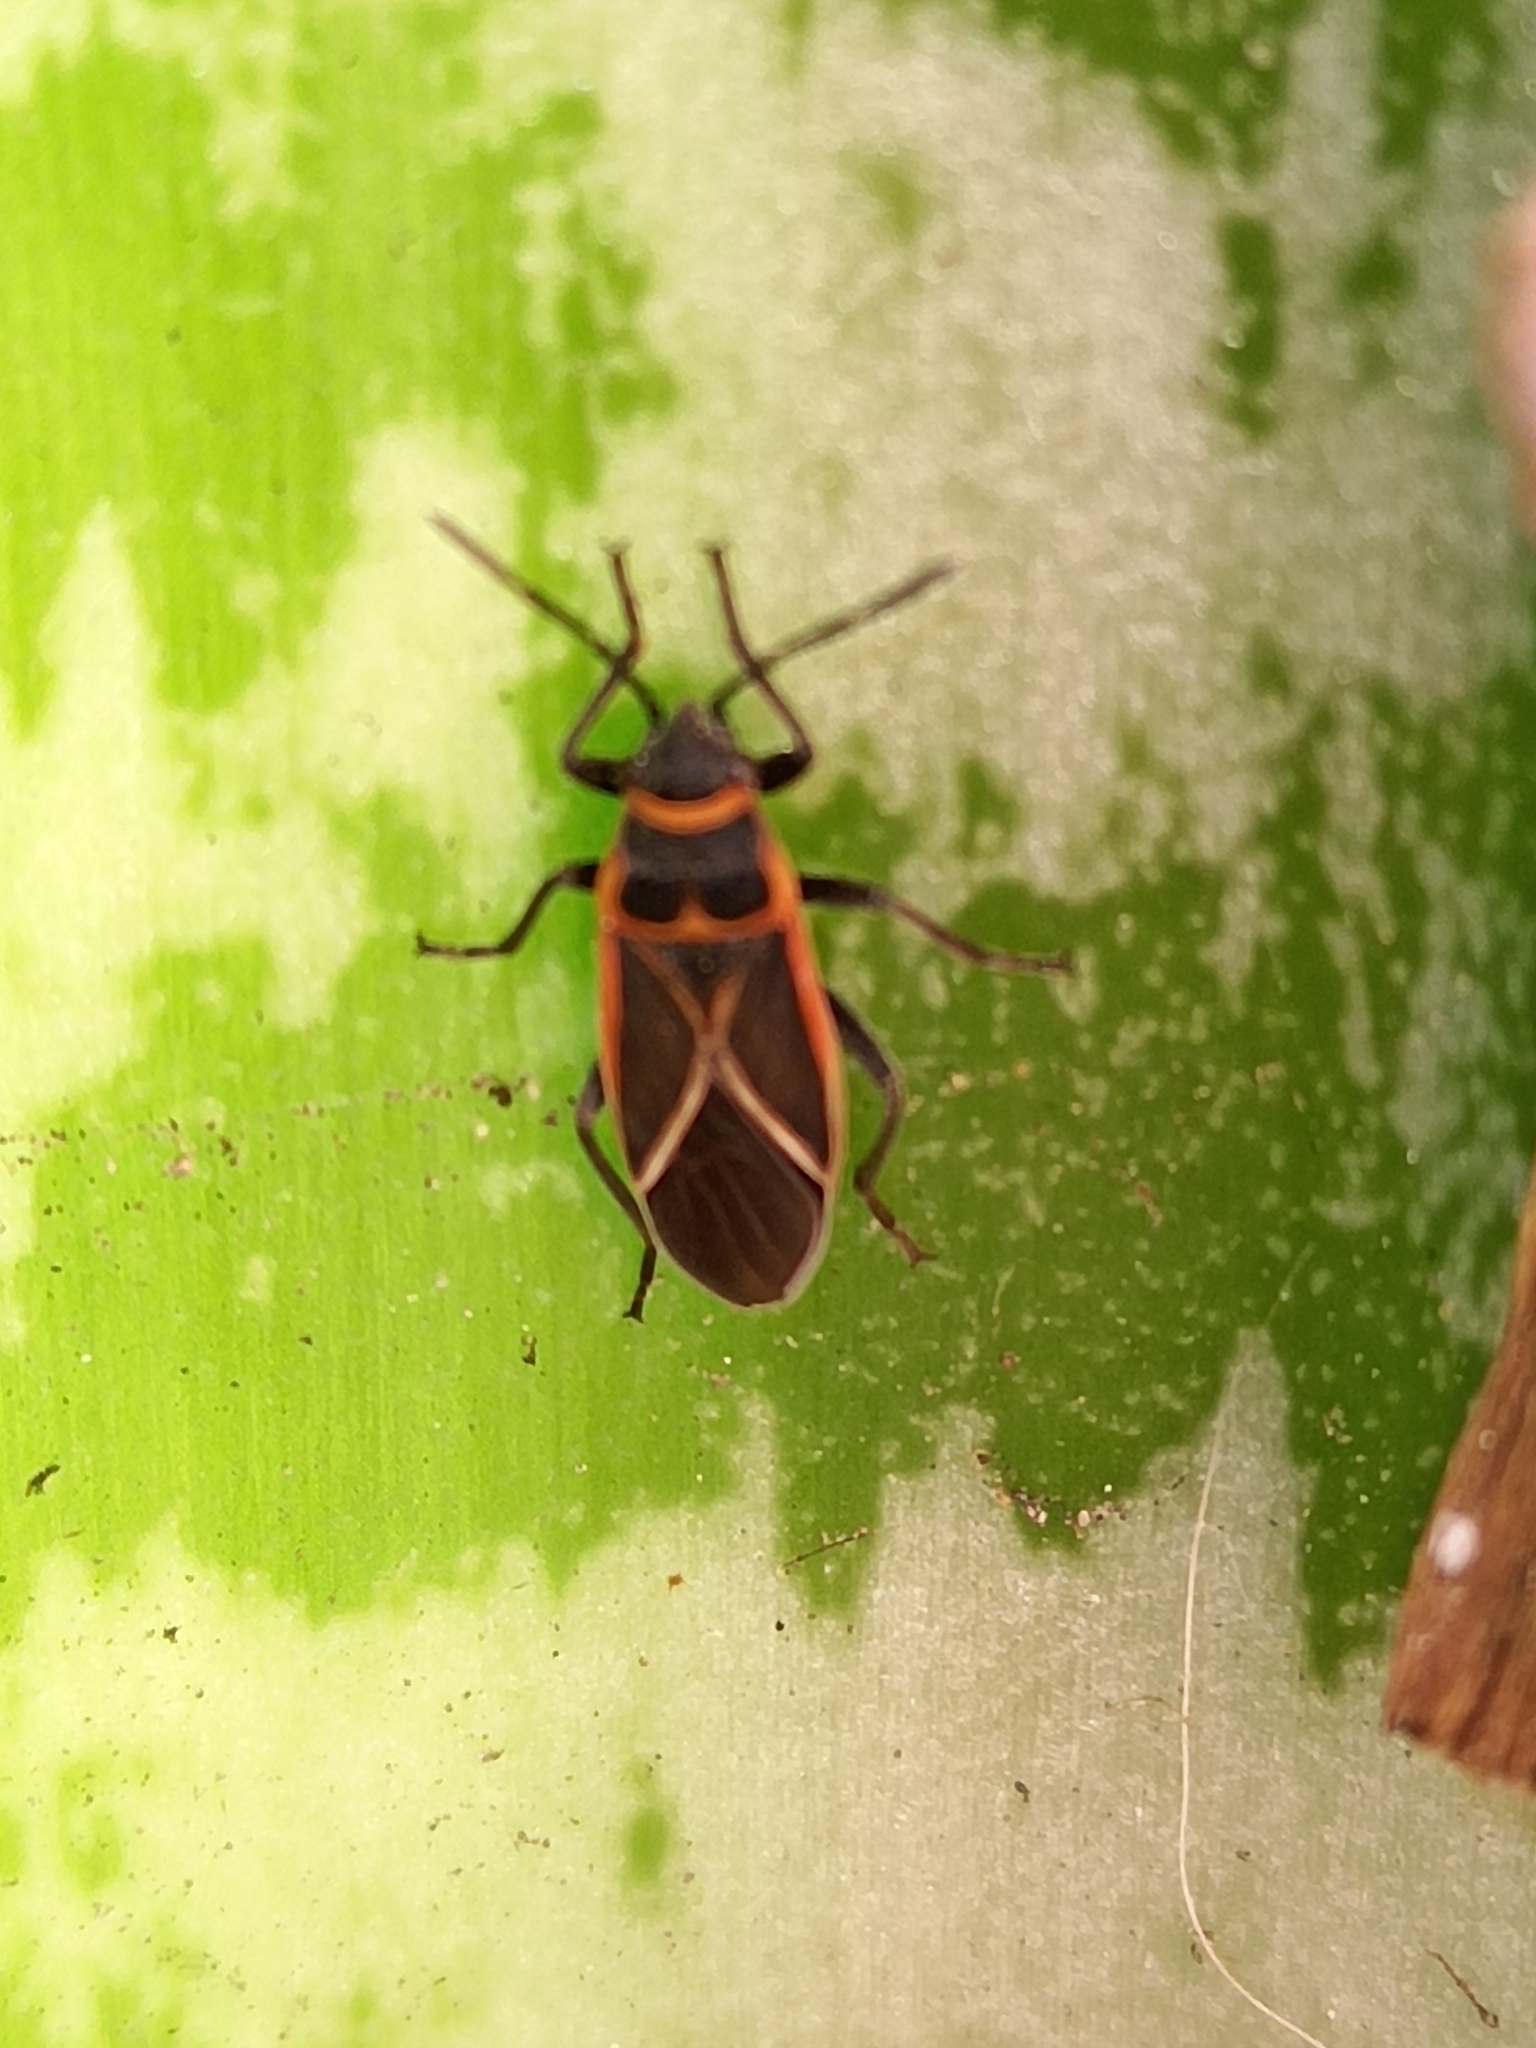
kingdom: Animalia
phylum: Arthropoda
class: Insecta
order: Hemiptera
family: Lygaeidae
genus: Ochrostomus
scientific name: Ochrostomus uhleri
